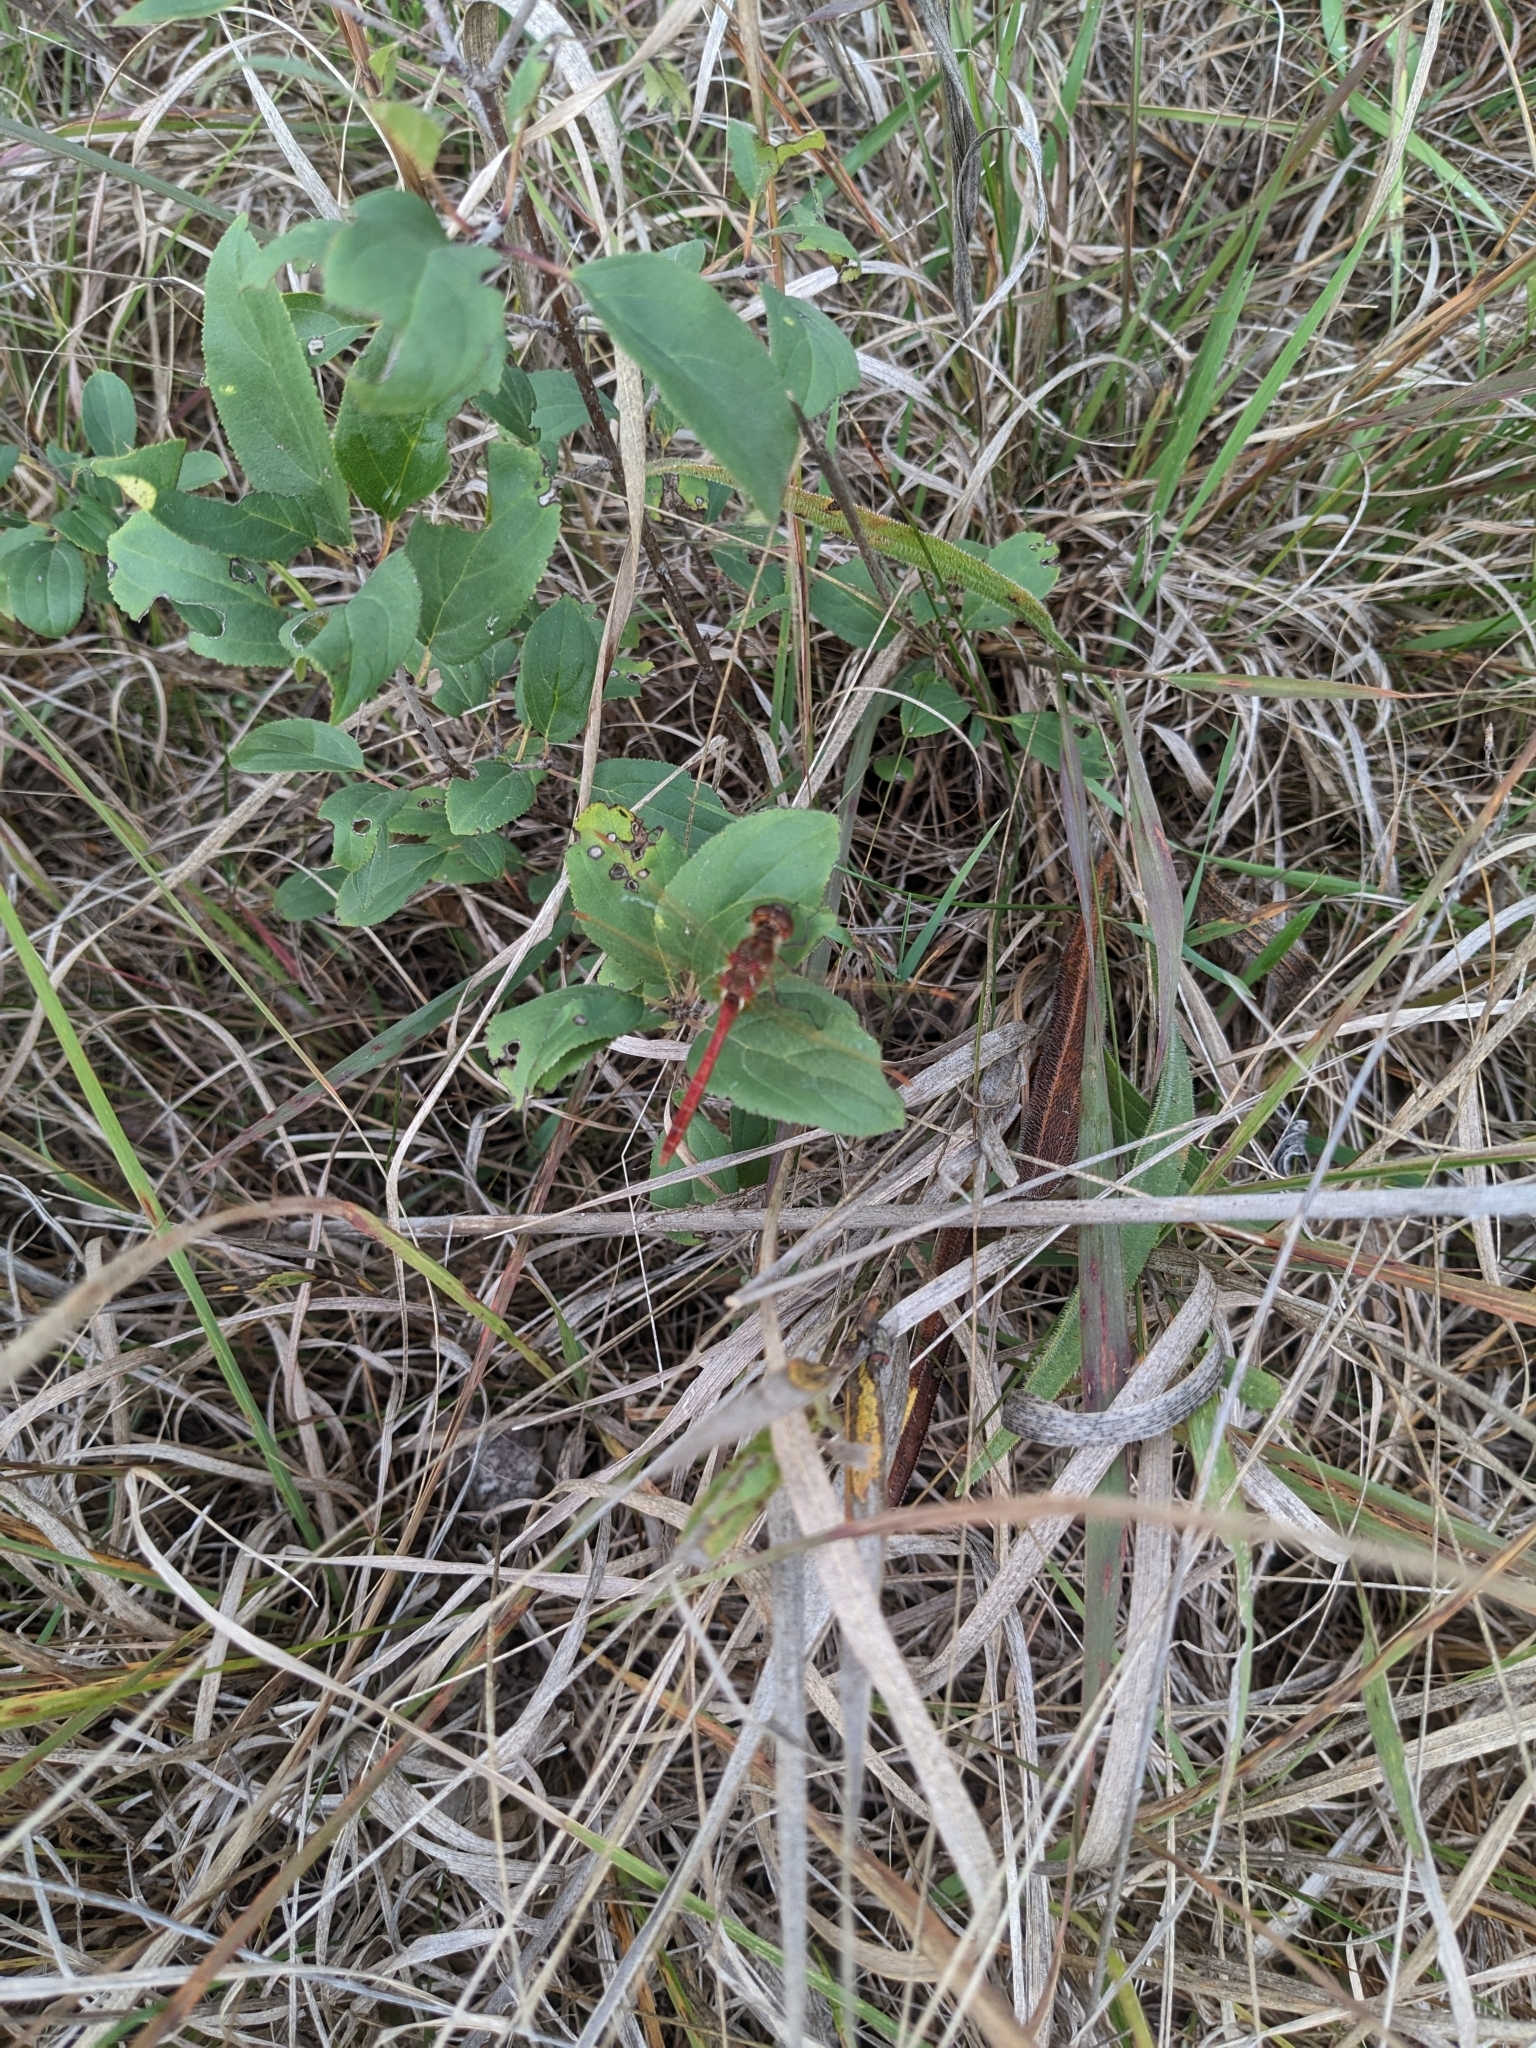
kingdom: Animalia
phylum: Arthropoda
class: Insecta
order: Odonata
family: Libellulidae
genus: Sympetrum
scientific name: Sympetrum costiferum
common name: Saffron-winged meadowhawk
